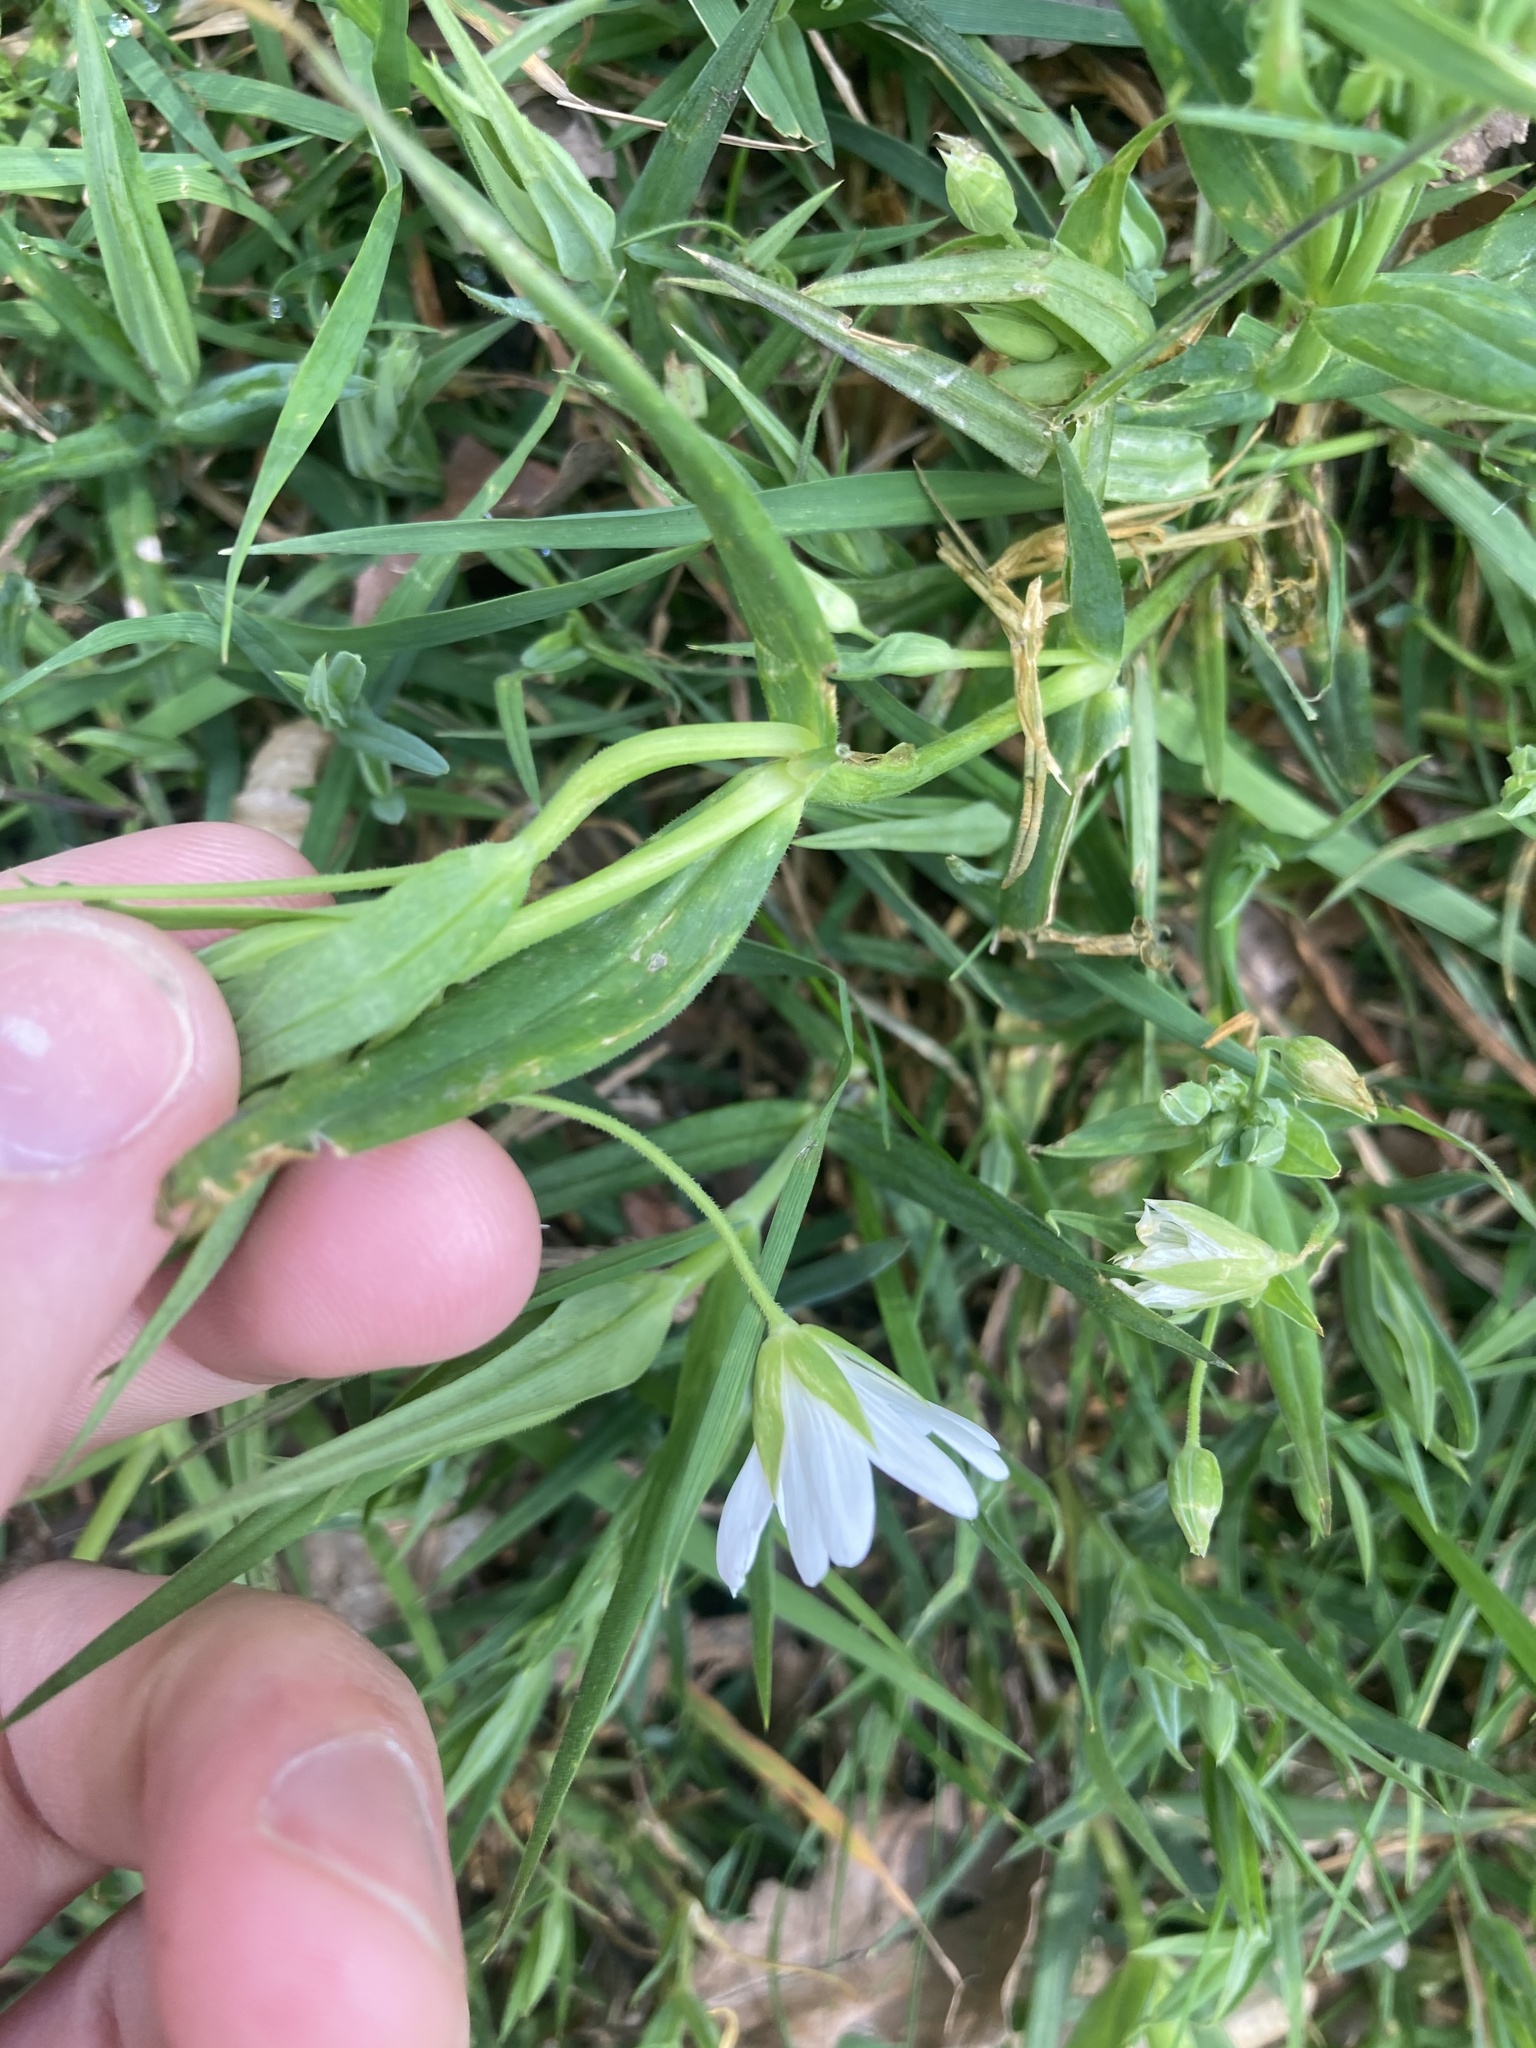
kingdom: Plantae
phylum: Tracheophyta
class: Magnoliopsida
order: Caryophyllales
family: Caryophyllaceae
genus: Rabelera
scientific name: Rabelera holostea
